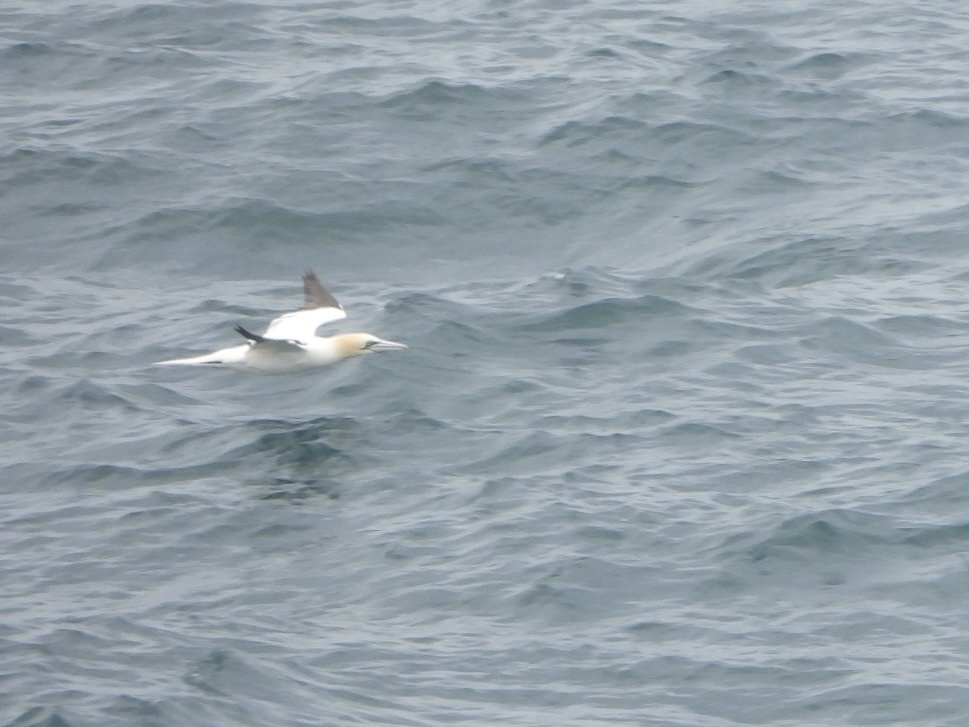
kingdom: Animalia
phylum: Chordata
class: Aves
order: Suliformes
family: Sulidae
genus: Morus
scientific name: Morus bassanus
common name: Northern gannet
